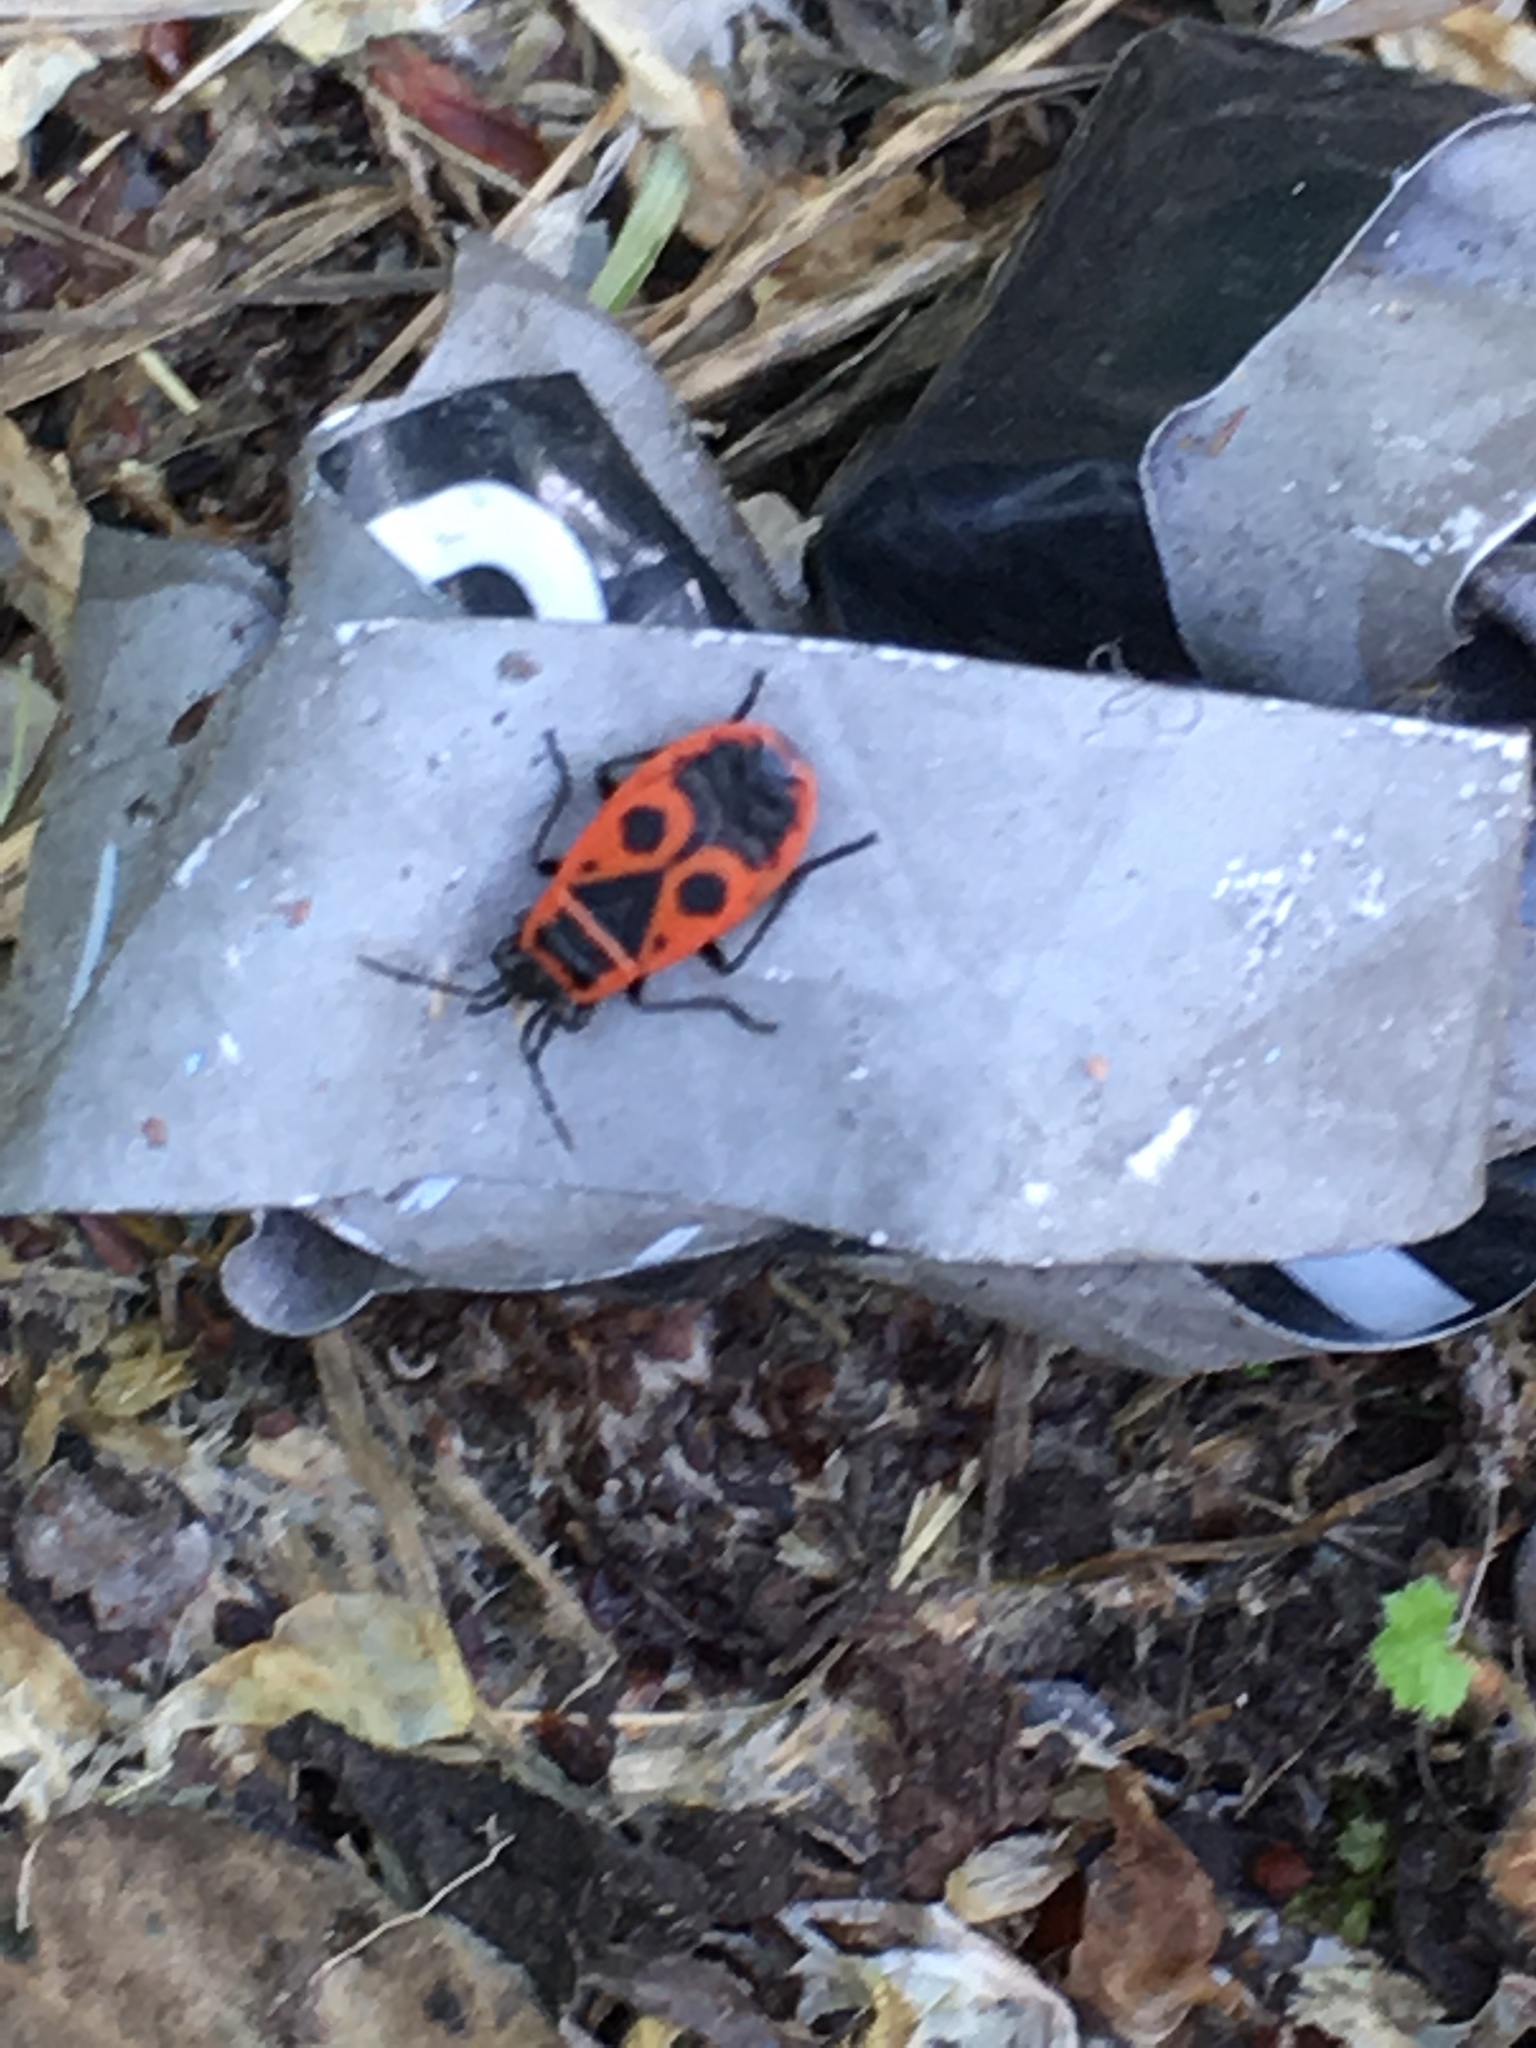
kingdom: Animalia
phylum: Arthropoda
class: Insecta
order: Hemiptera
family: Pyrrhocoridae
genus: Pyrrhocoris
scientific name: Pyrrhocoris apterus
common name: Firebug
